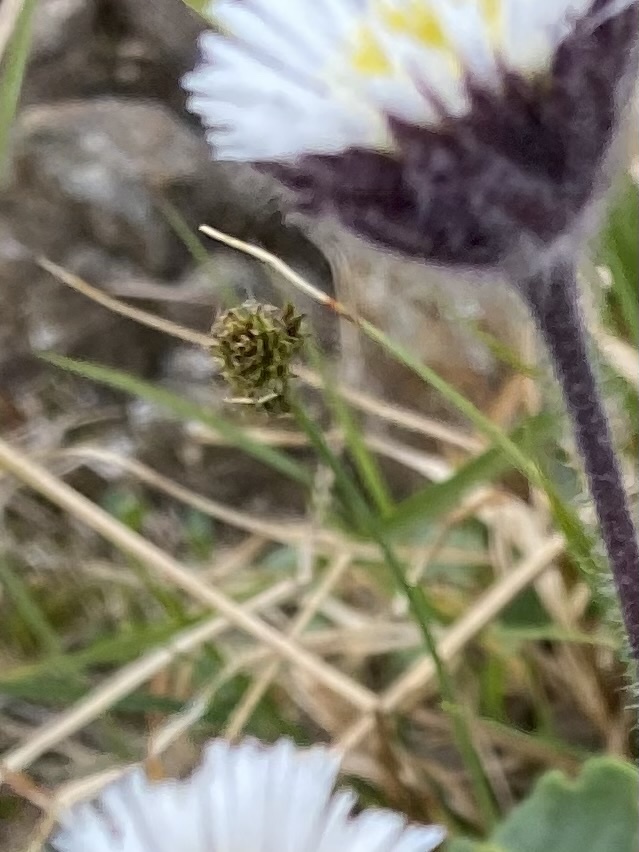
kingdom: Plantae
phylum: Tracheophyta
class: Liliopsida
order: Poales
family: Cyperaceae
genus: Carex
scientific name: Carex lachenalii
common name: Hare's-foot sedge
